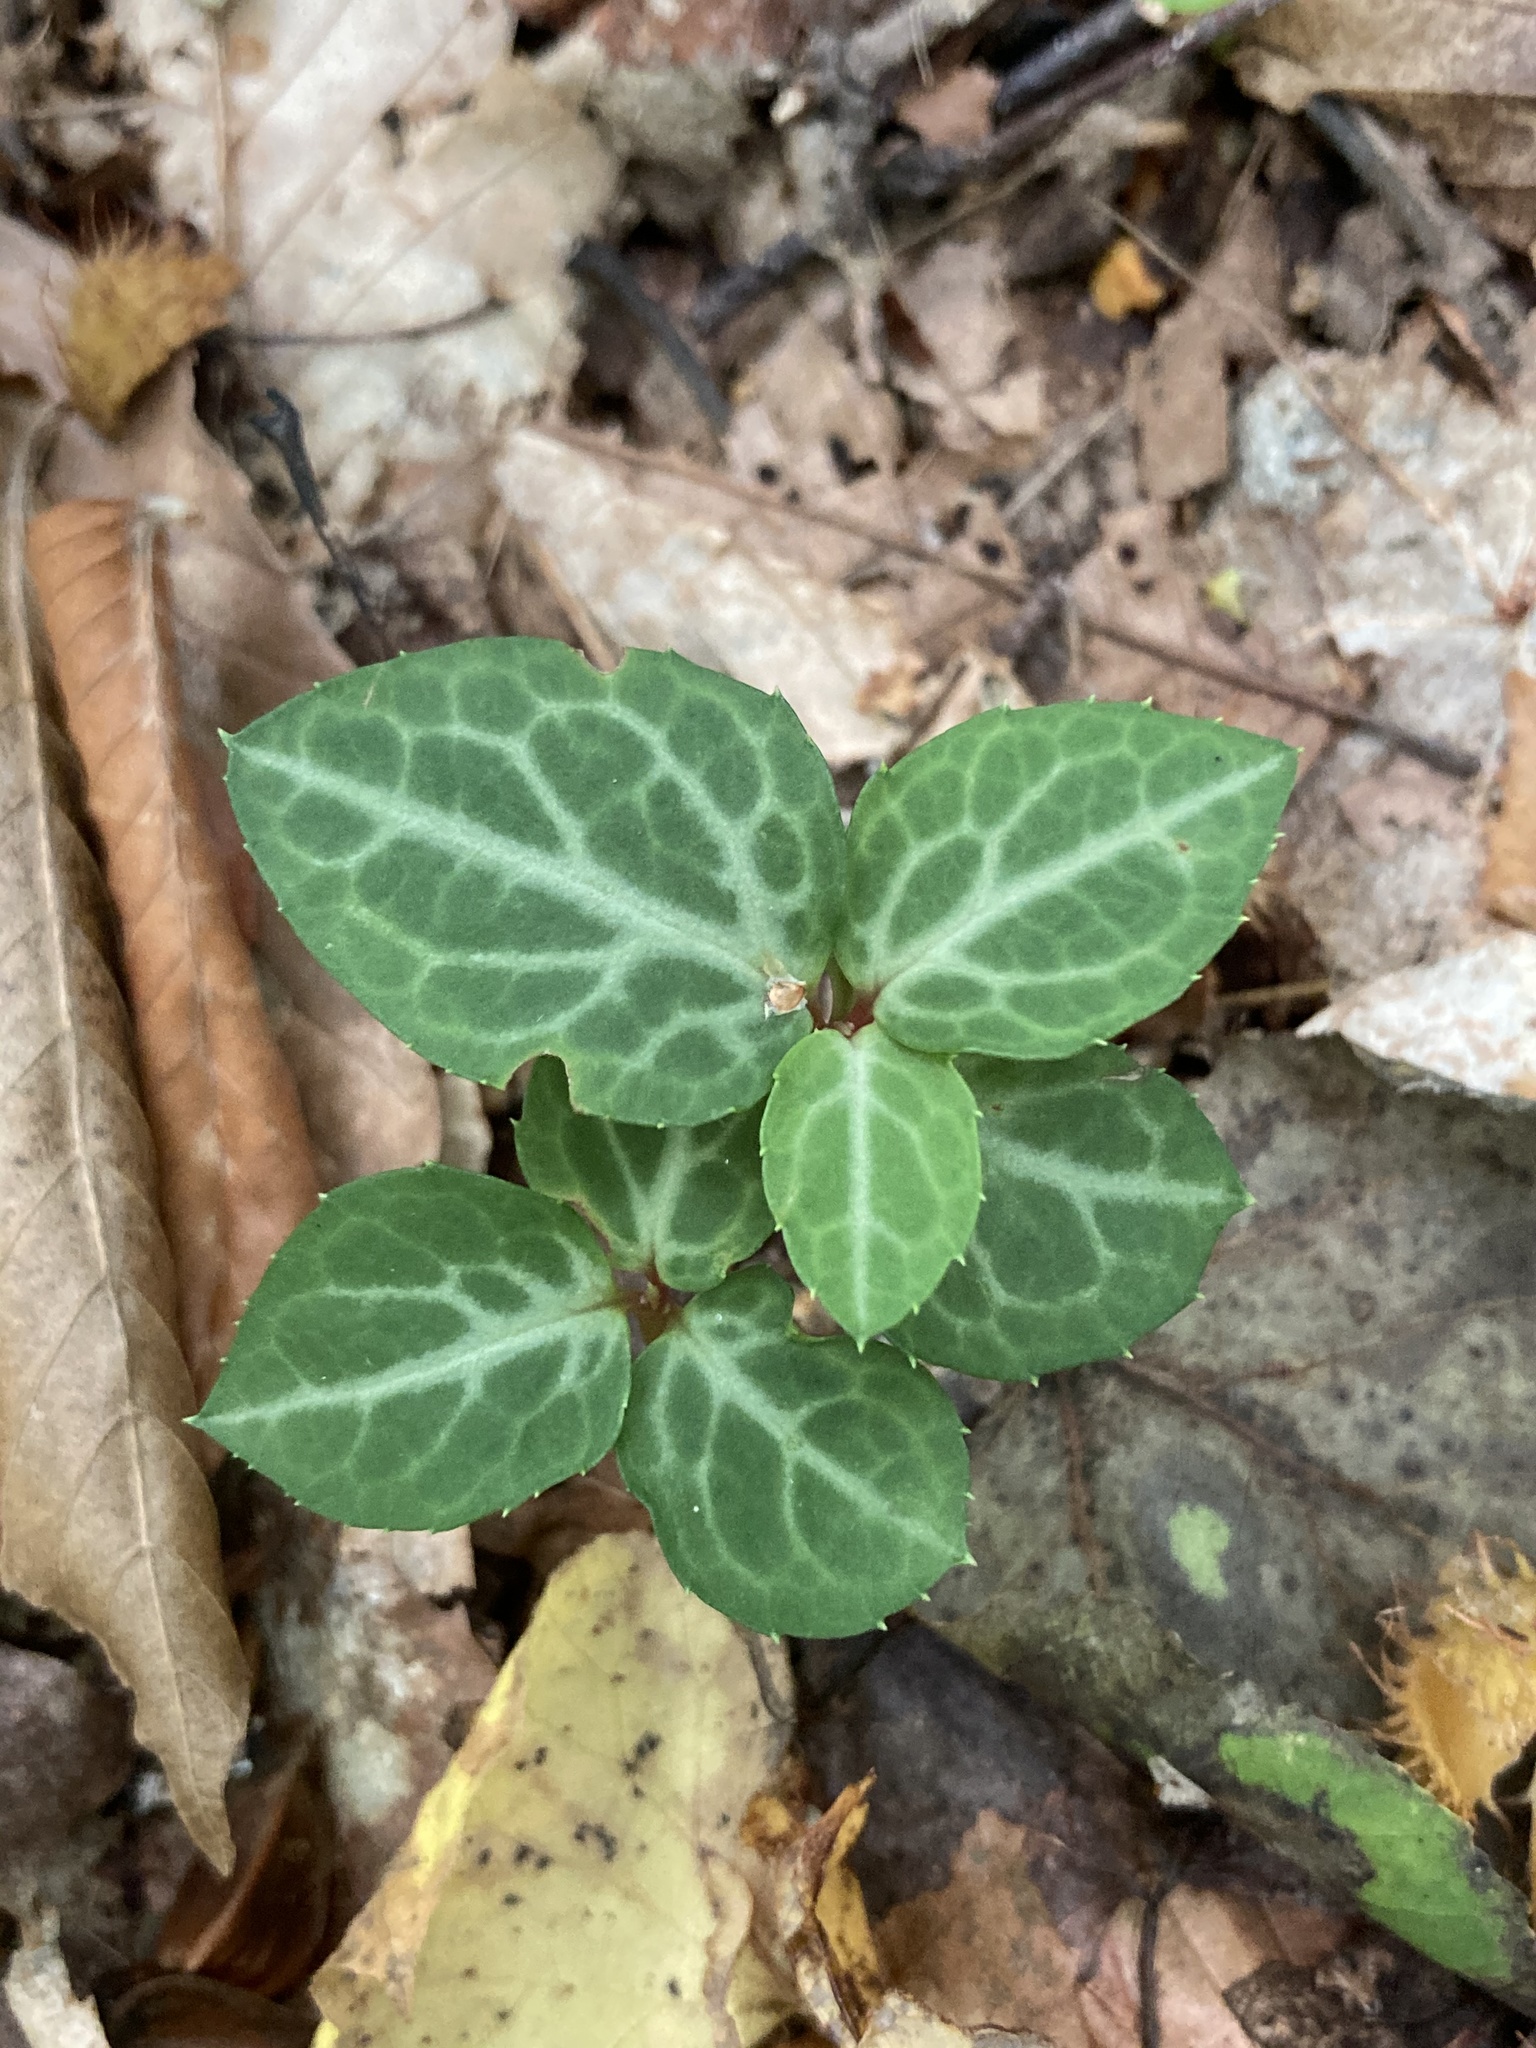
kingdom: Plantae
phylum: Tracheophyta
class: Magnoliopsida
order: Ericales
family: Ericaceae
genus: Chimaphila
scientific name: Chimaphila maculata
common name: Spotted pipsissewa
